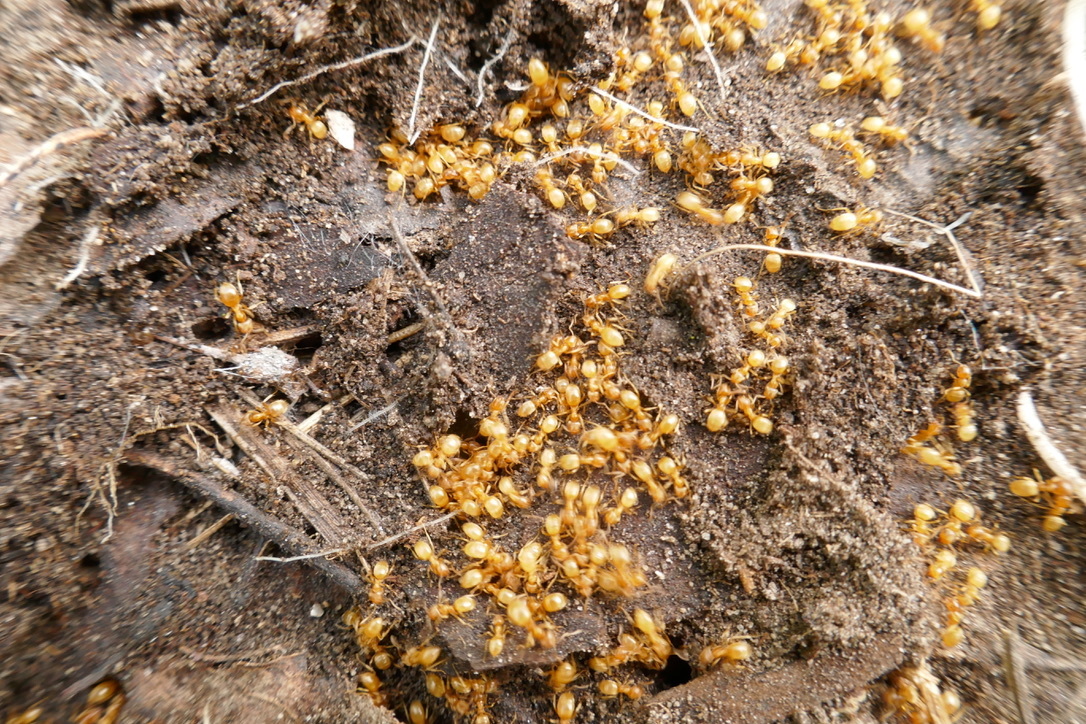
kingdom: Animalia
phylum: Arthropoda
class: Insecta
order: Hymenoptera
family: Formicidae
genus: Lasius
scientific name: Lasius flavus
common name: Blond field ant
